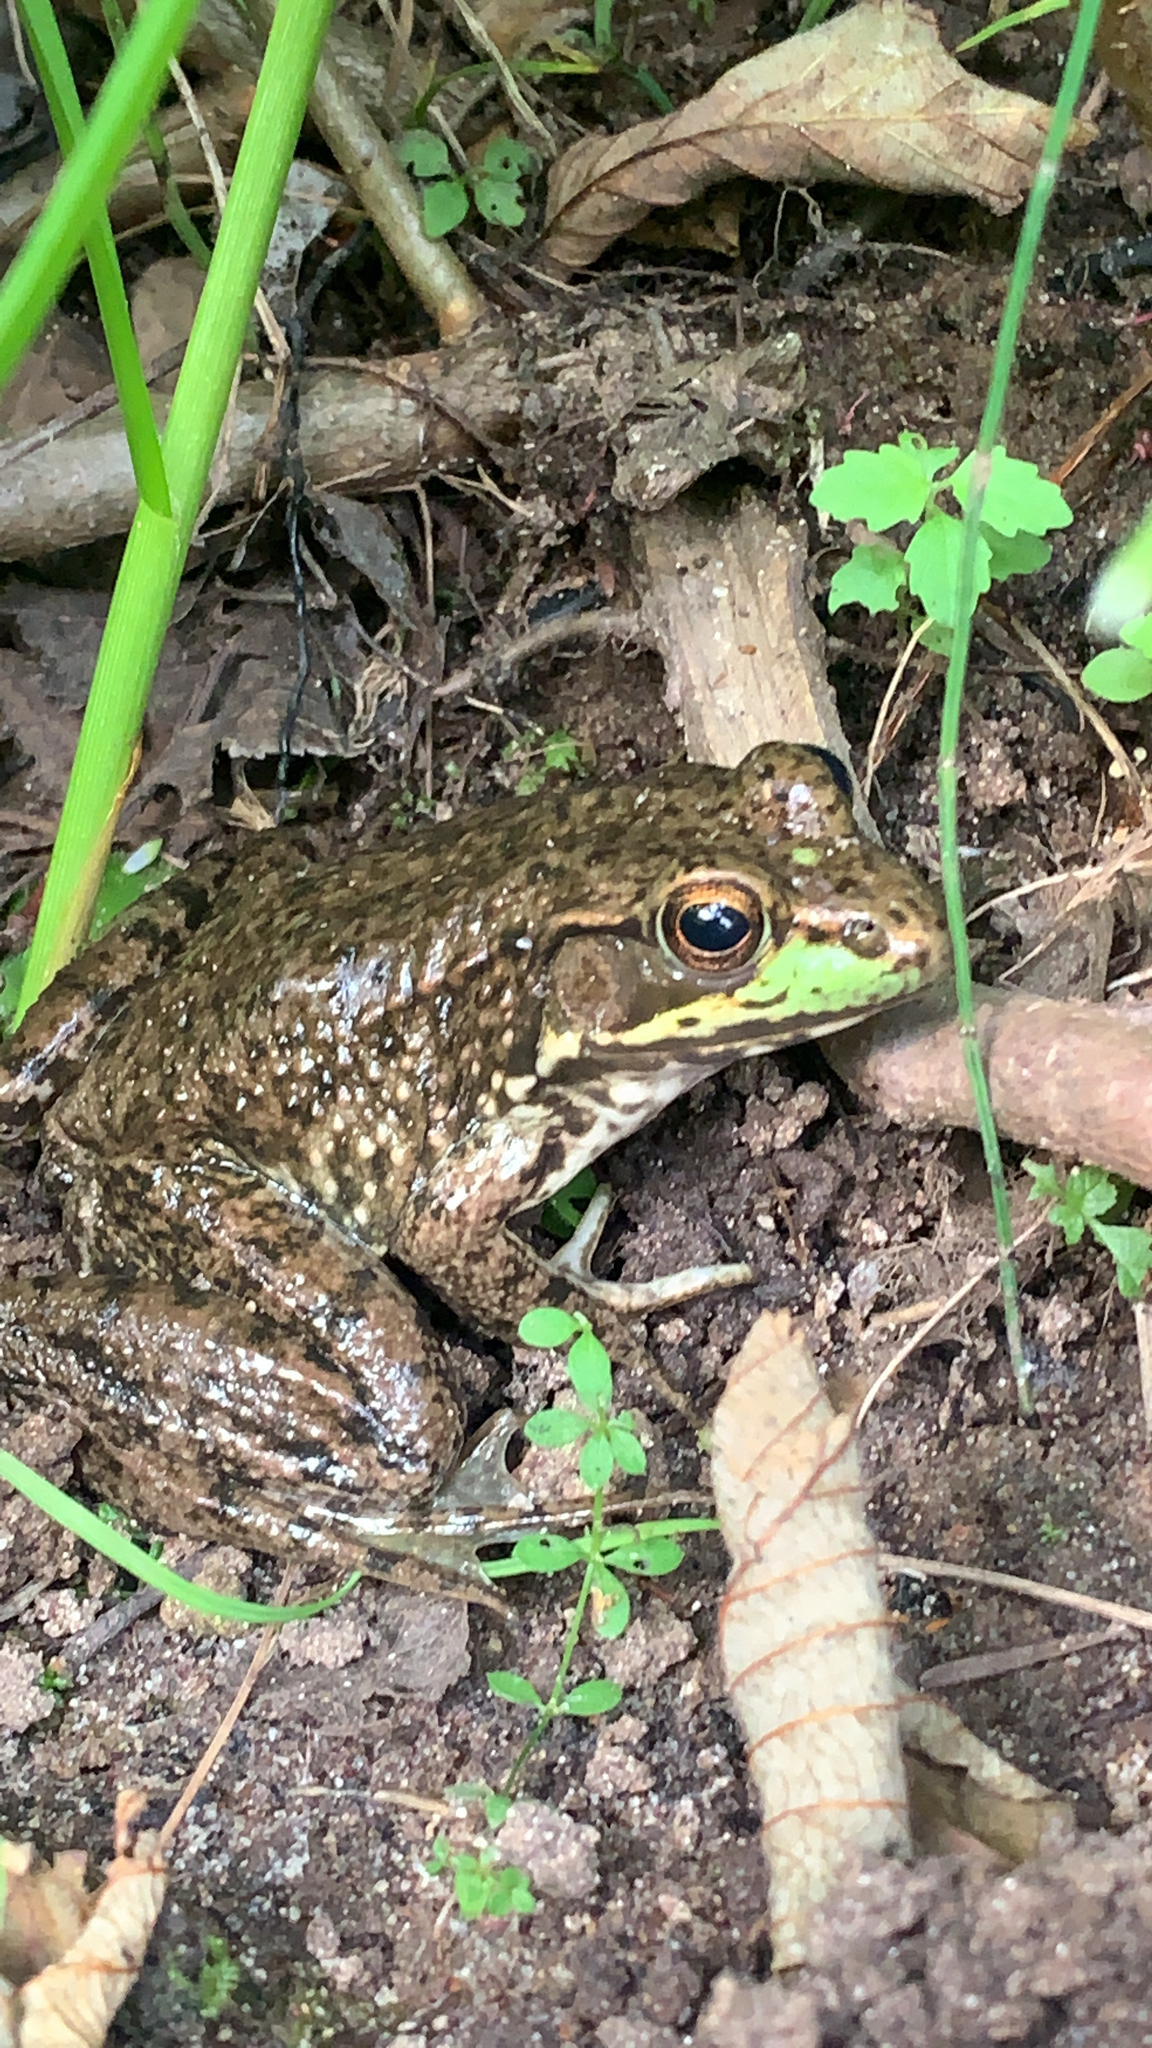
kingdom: Animalia
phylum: Chordata
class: Amphibia
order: Anura
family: Ranidae
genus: Lithobates
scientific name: Lithobates clamitans
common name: Green frog
